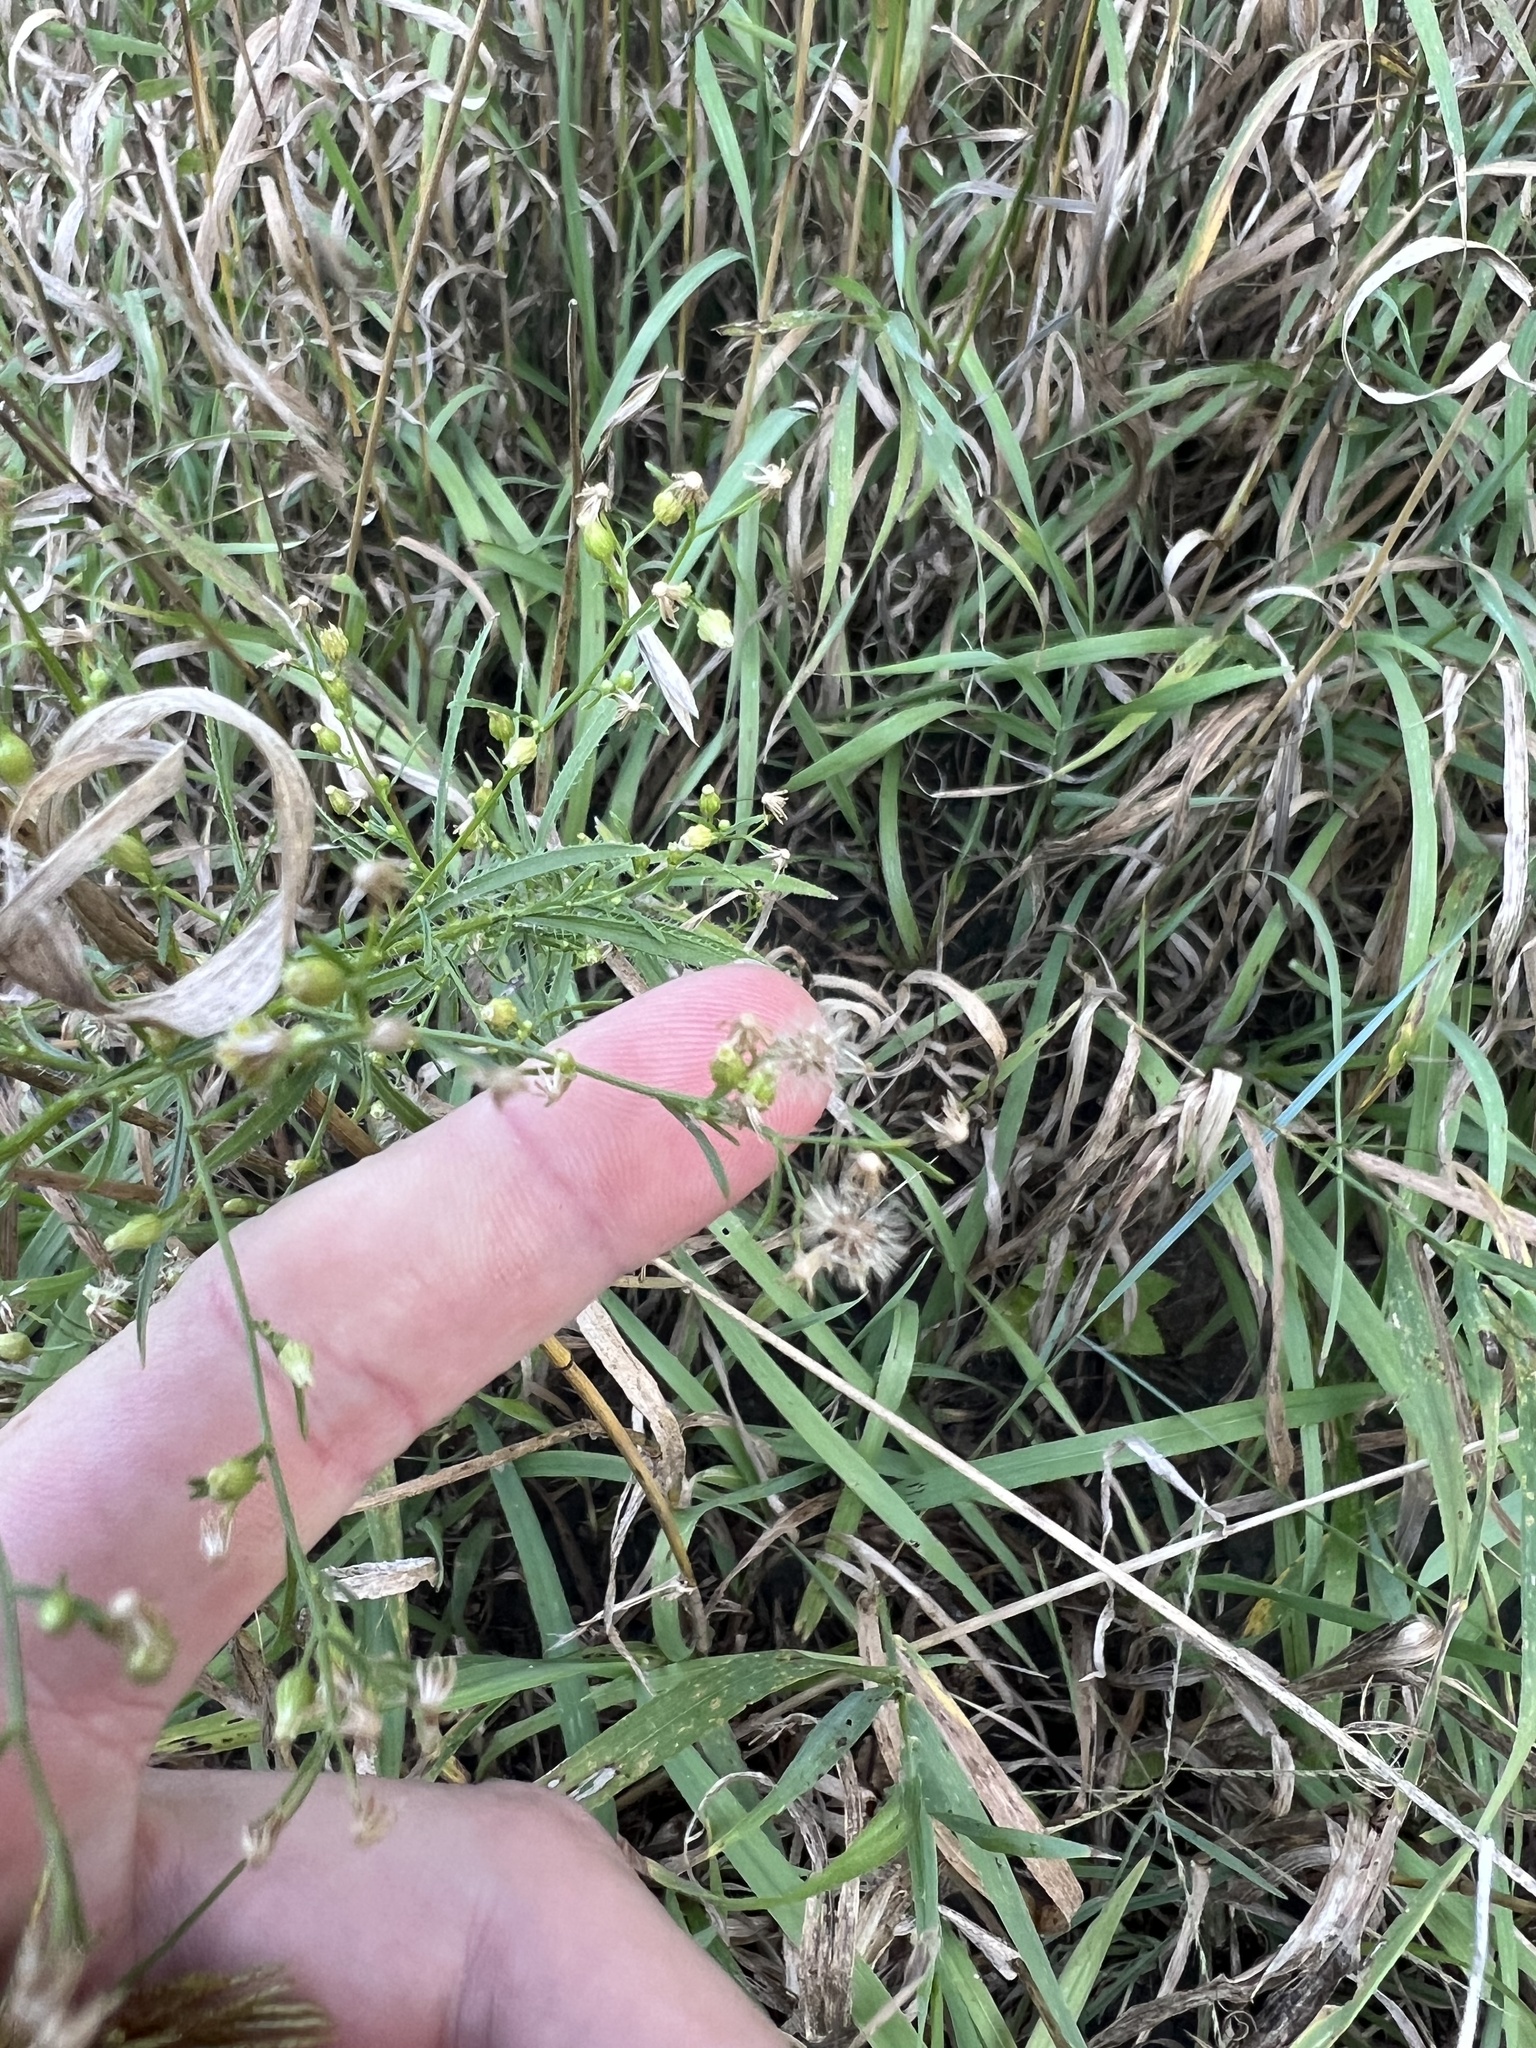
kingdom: Plantae
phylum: Tracheophyta
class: Magnoliopsida
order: Asterales
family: Asteraceae
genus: Erigeron
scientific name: Erigeron canadensis
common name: Canadian fleabane
